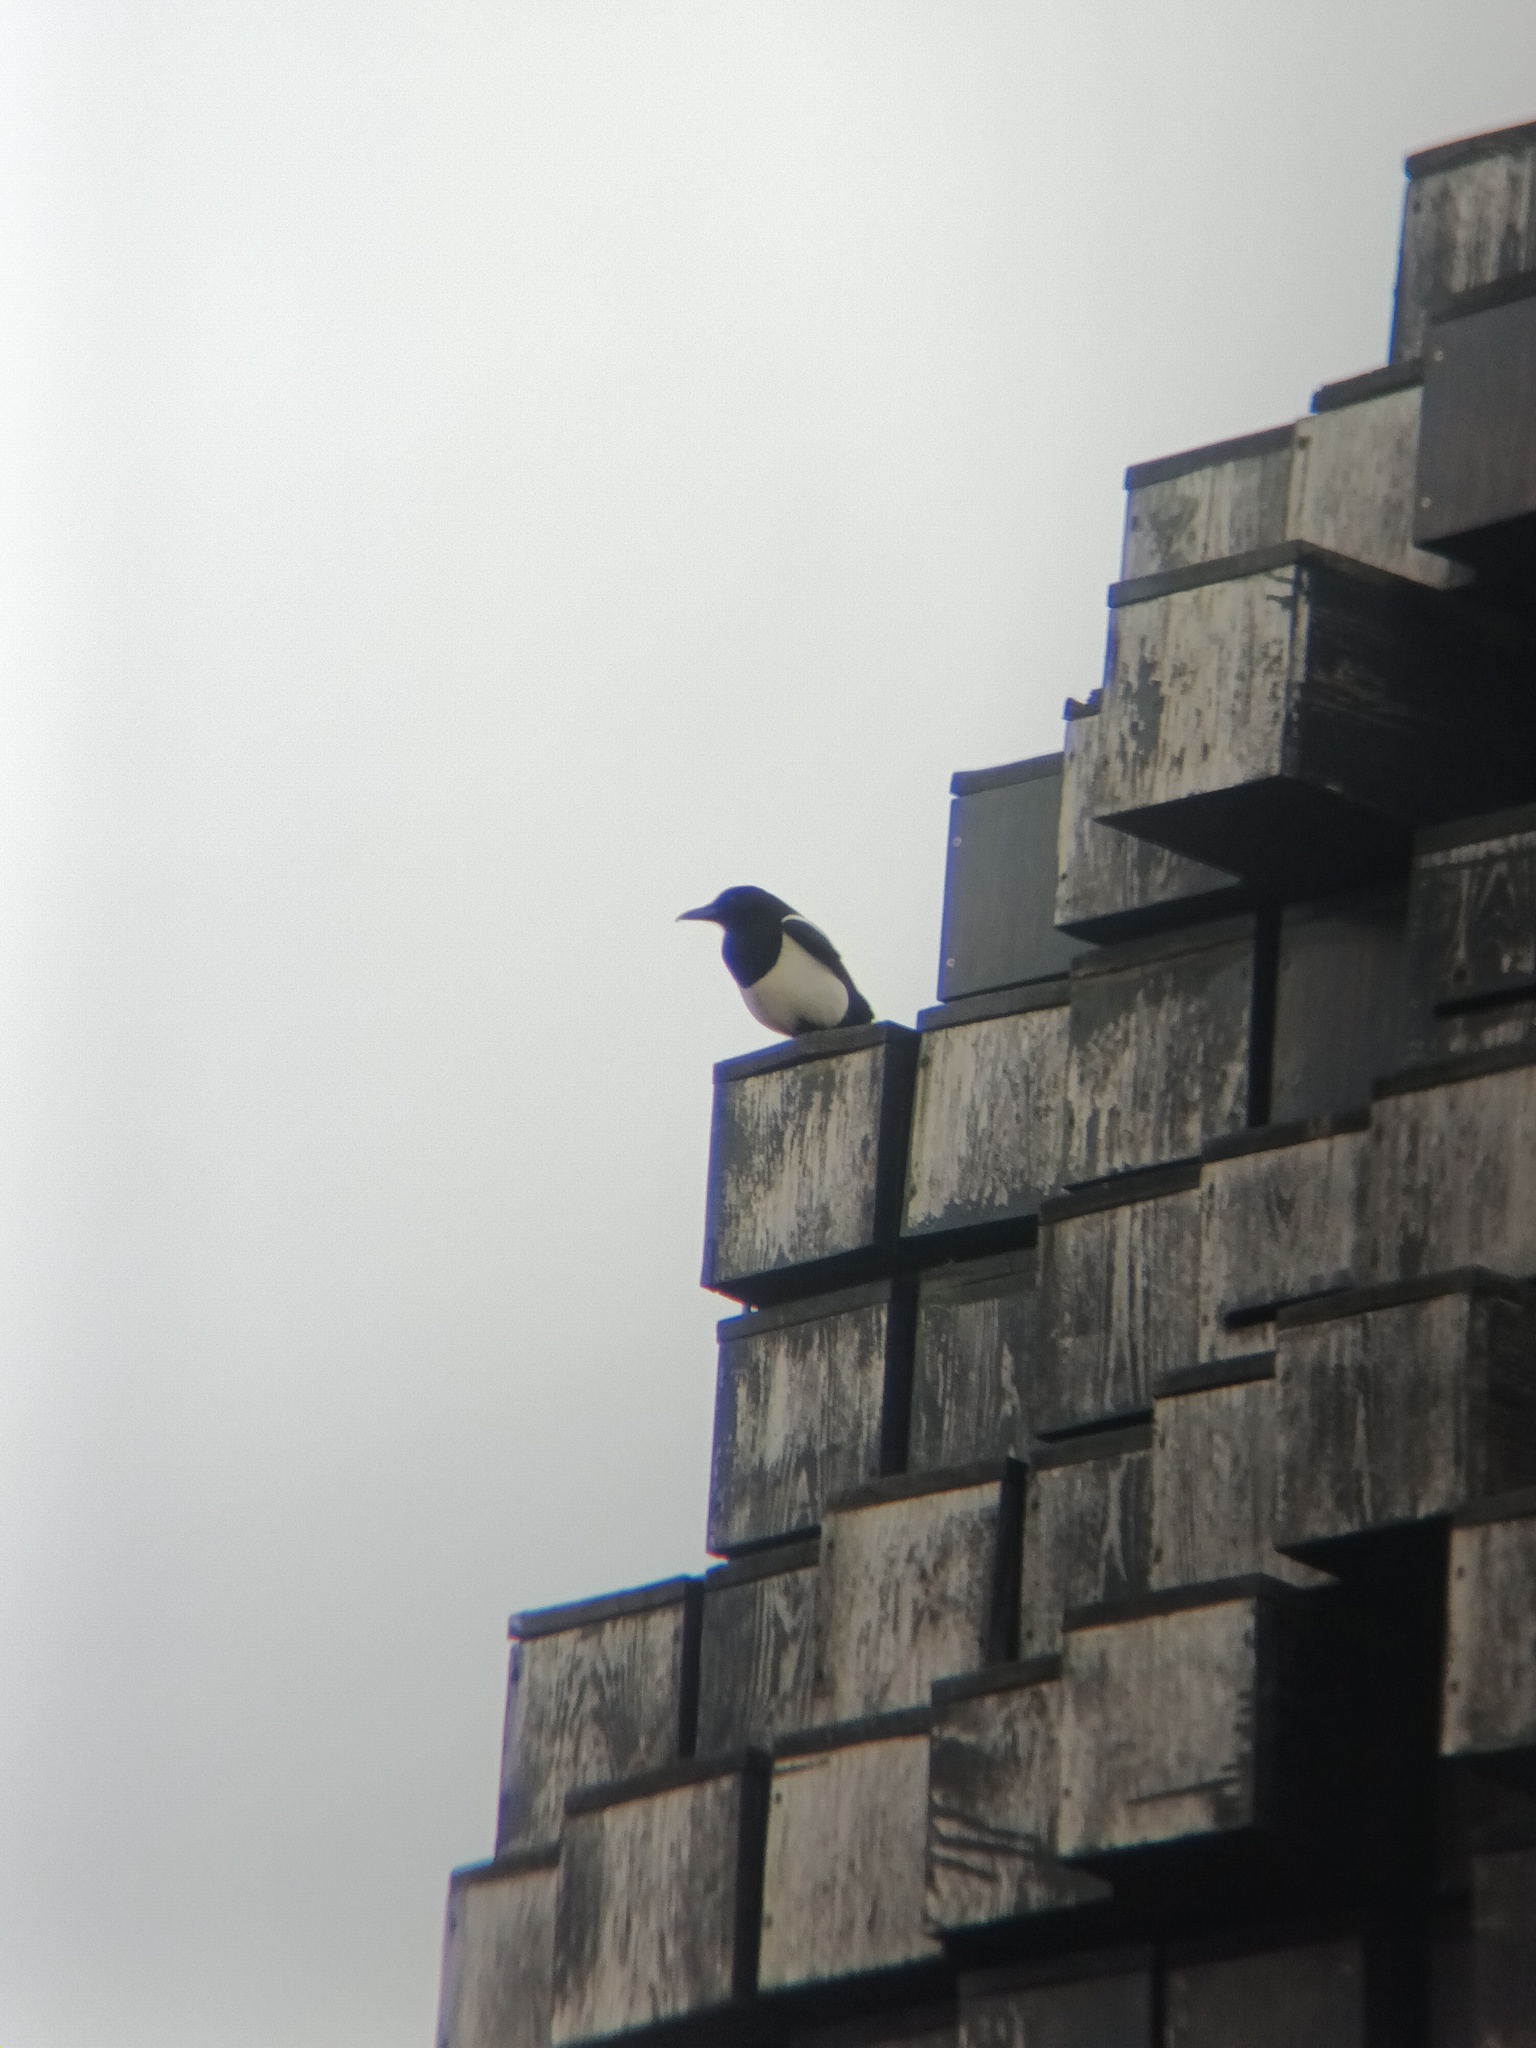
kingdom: Animalia
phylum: Chordata
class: Aves
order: Passeriformes
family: Corvidae
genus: Pica
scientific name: Pica pica
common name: Eurasian magpie
